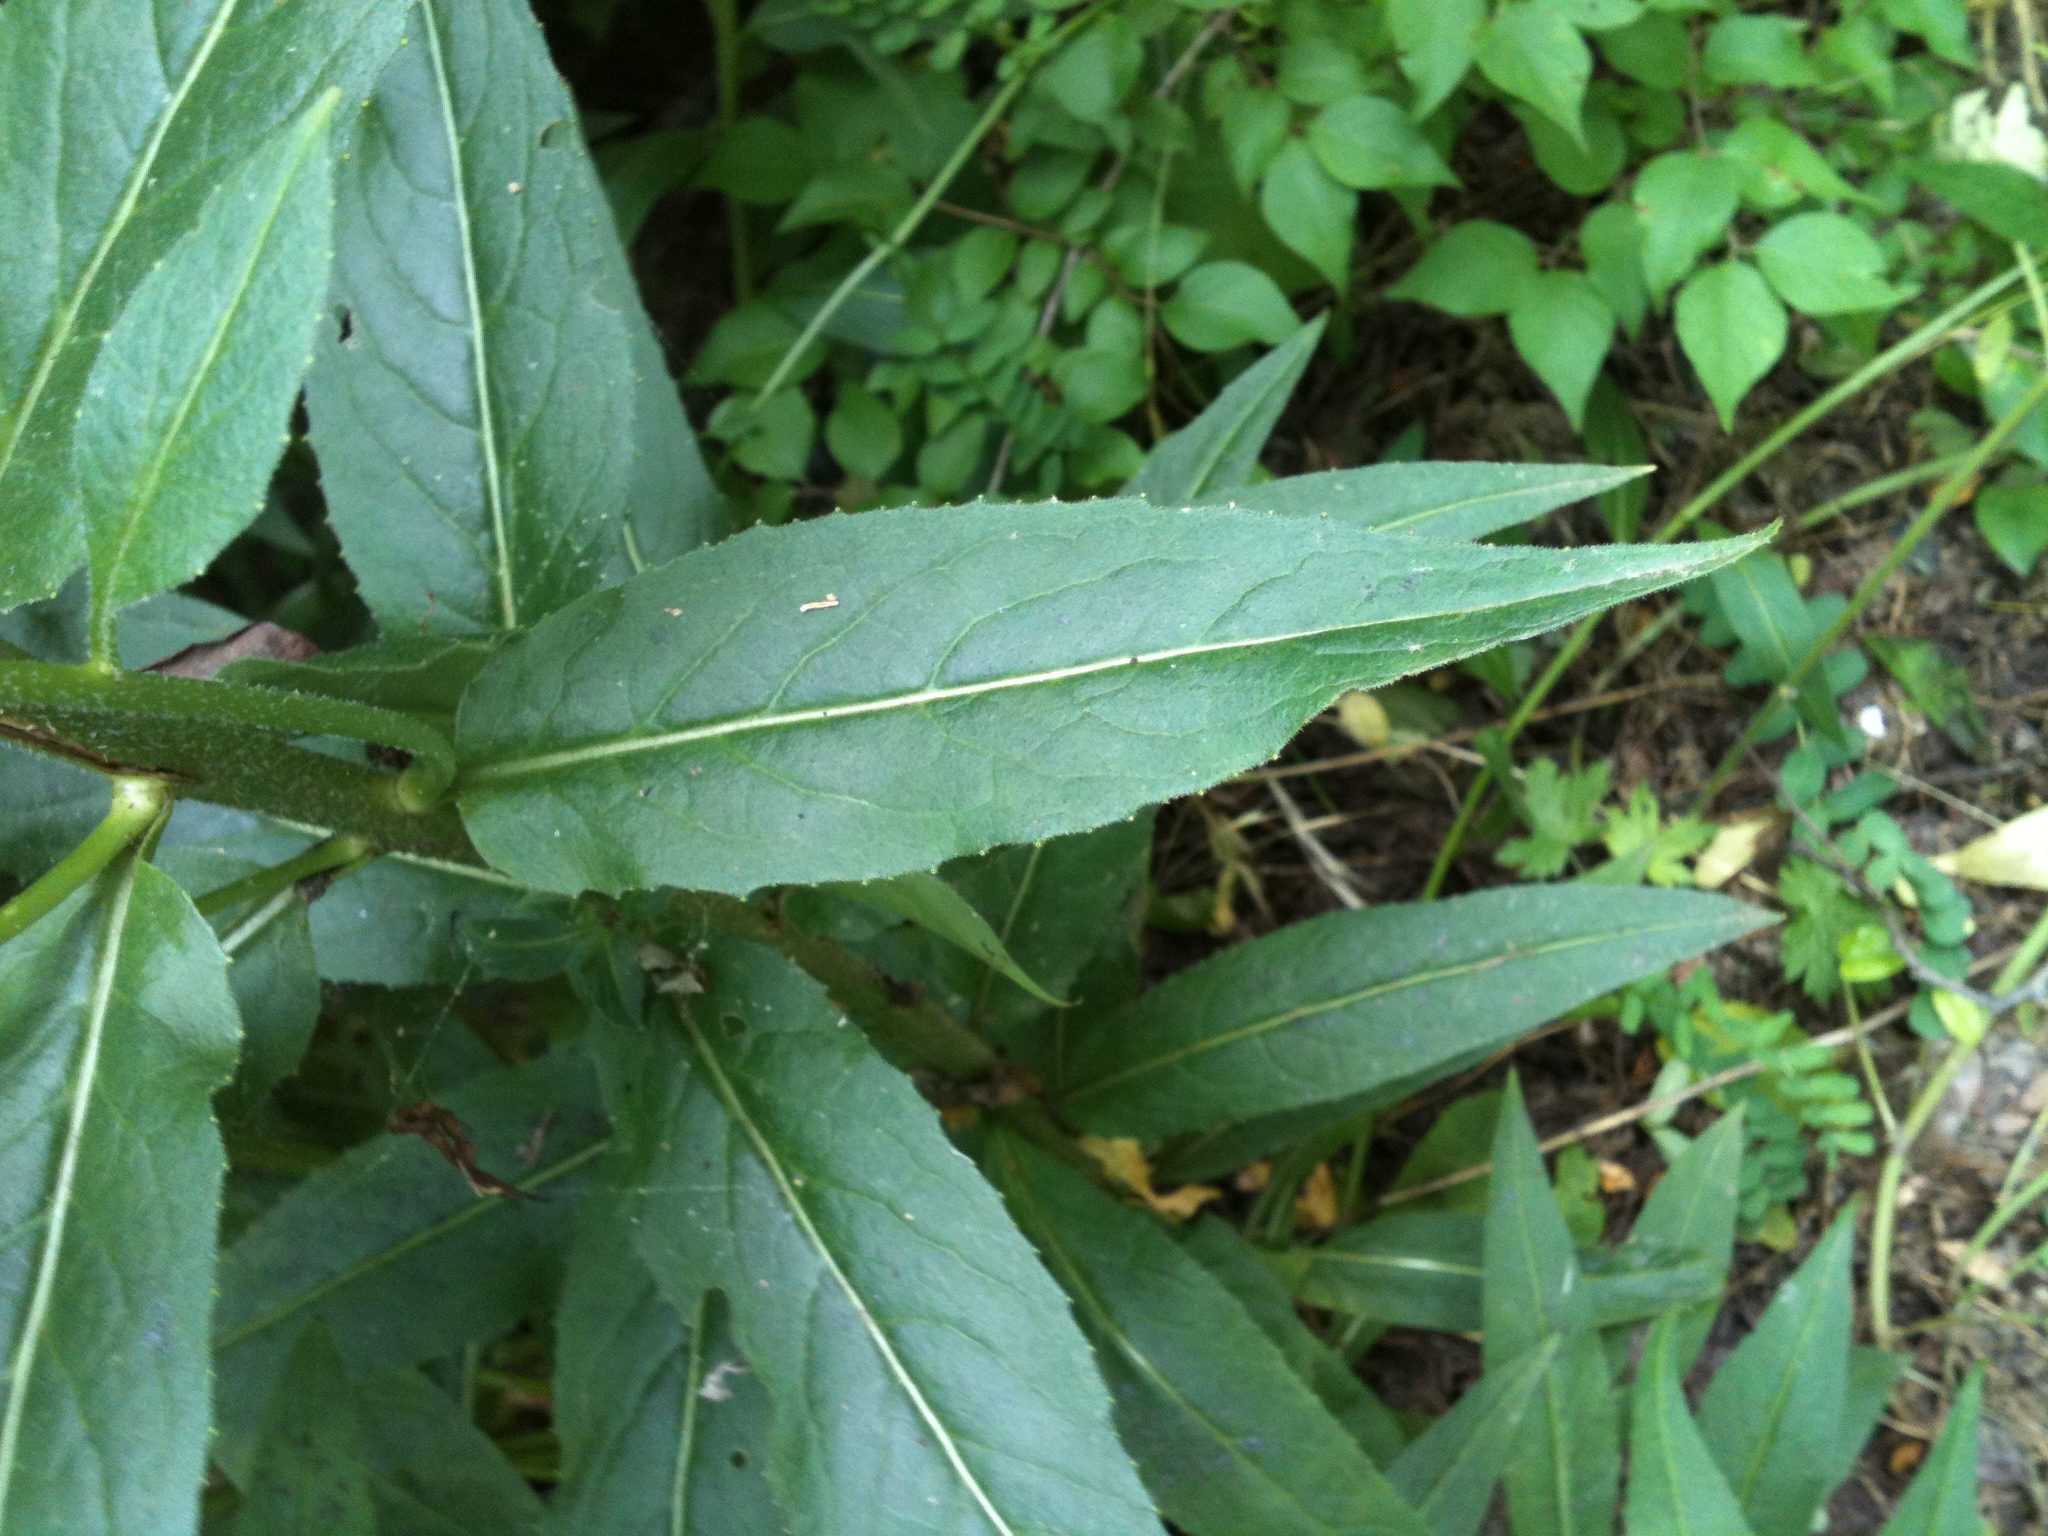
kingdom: Plantae
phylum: Tracheophyta
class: Magnoliopsida
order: Brassicales
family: Brassicaceae
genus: Hesperis
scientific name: Hesperis matronalis
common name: Dame's-violet
